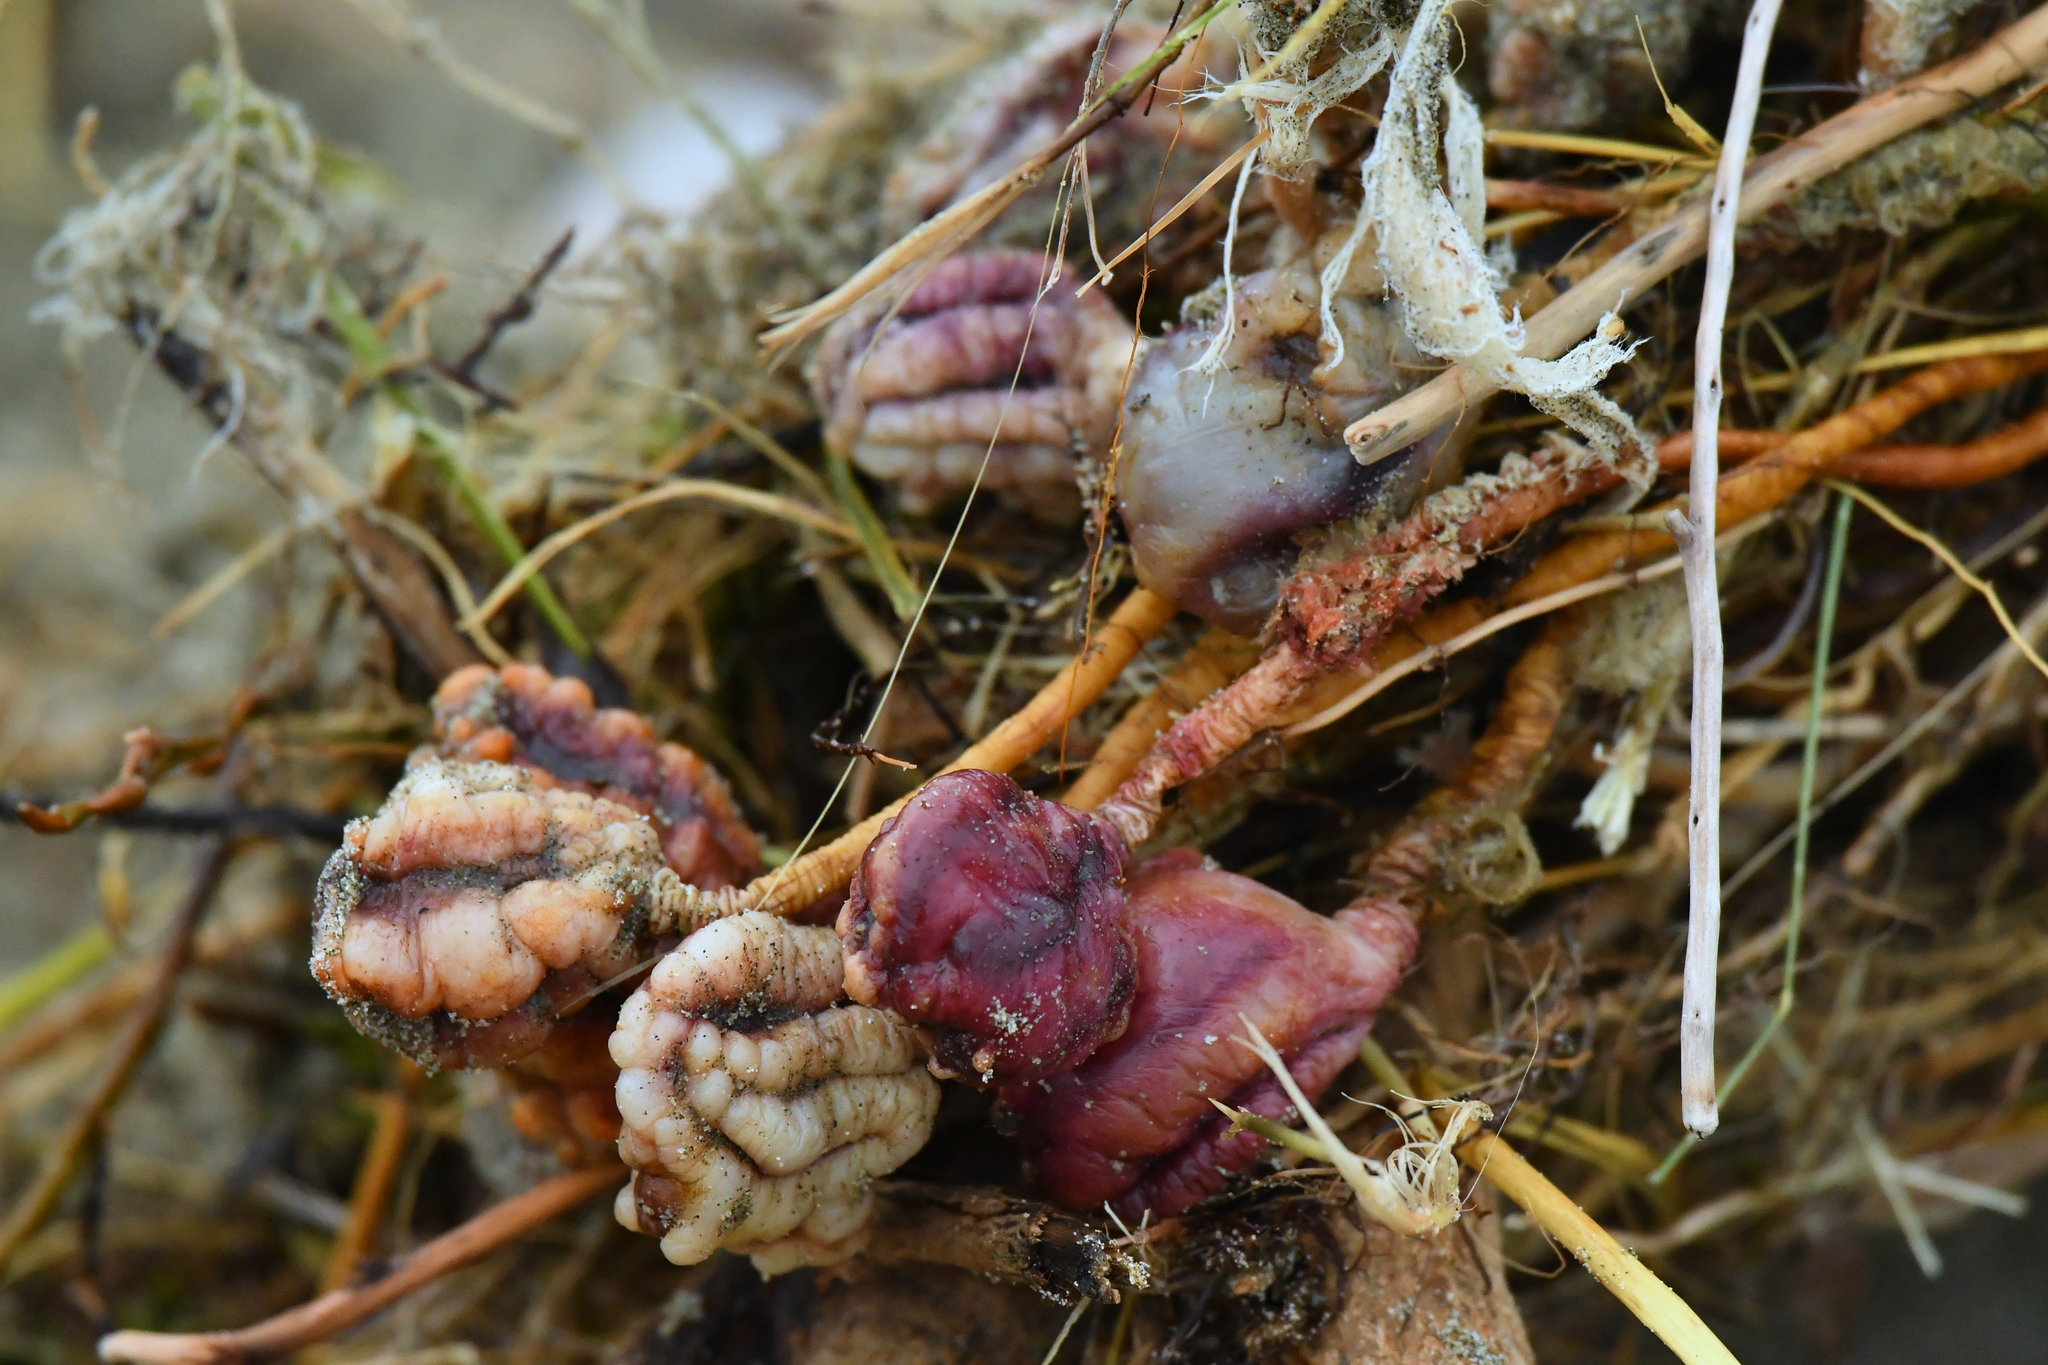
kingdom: Animalia
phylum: Chordata
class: Ascidiacea
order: Stolidobranchia
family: Pyuridae
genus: Pyura
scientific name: Pyura pachydermatina
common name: Sea tulip
